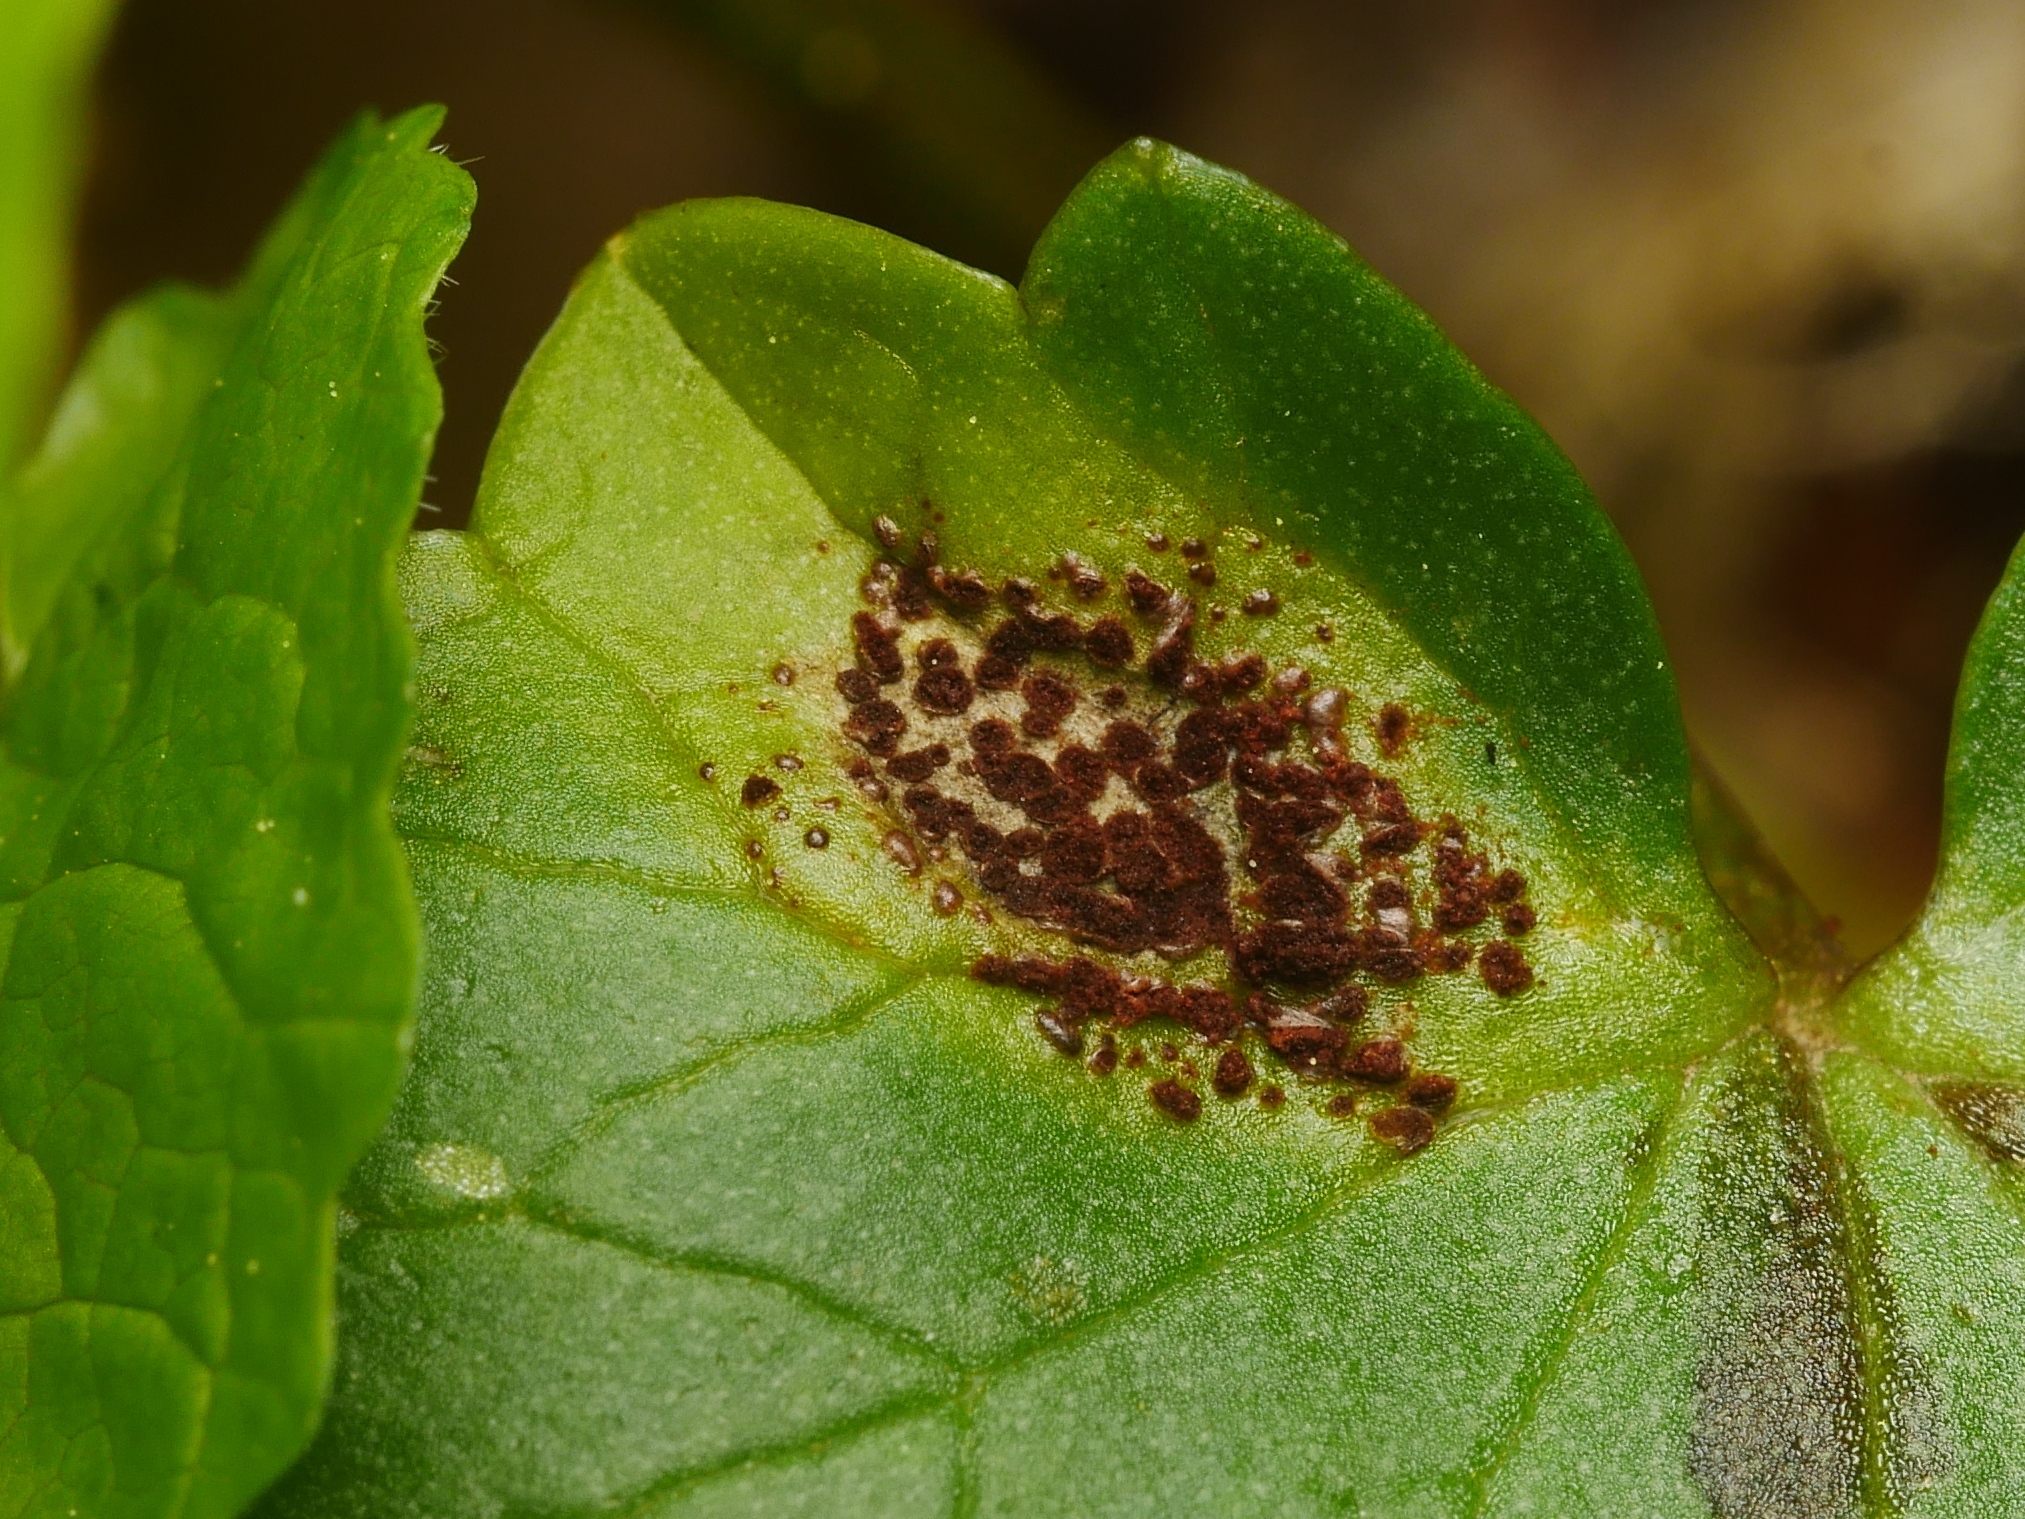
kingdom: Fungi
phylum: Basidiomycota
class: Pucciniomycetes
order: Pucciniales
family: Pucciniaceae
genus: Uromyces
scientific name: Uromyces ficariae
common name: Bitter chocolate rust
